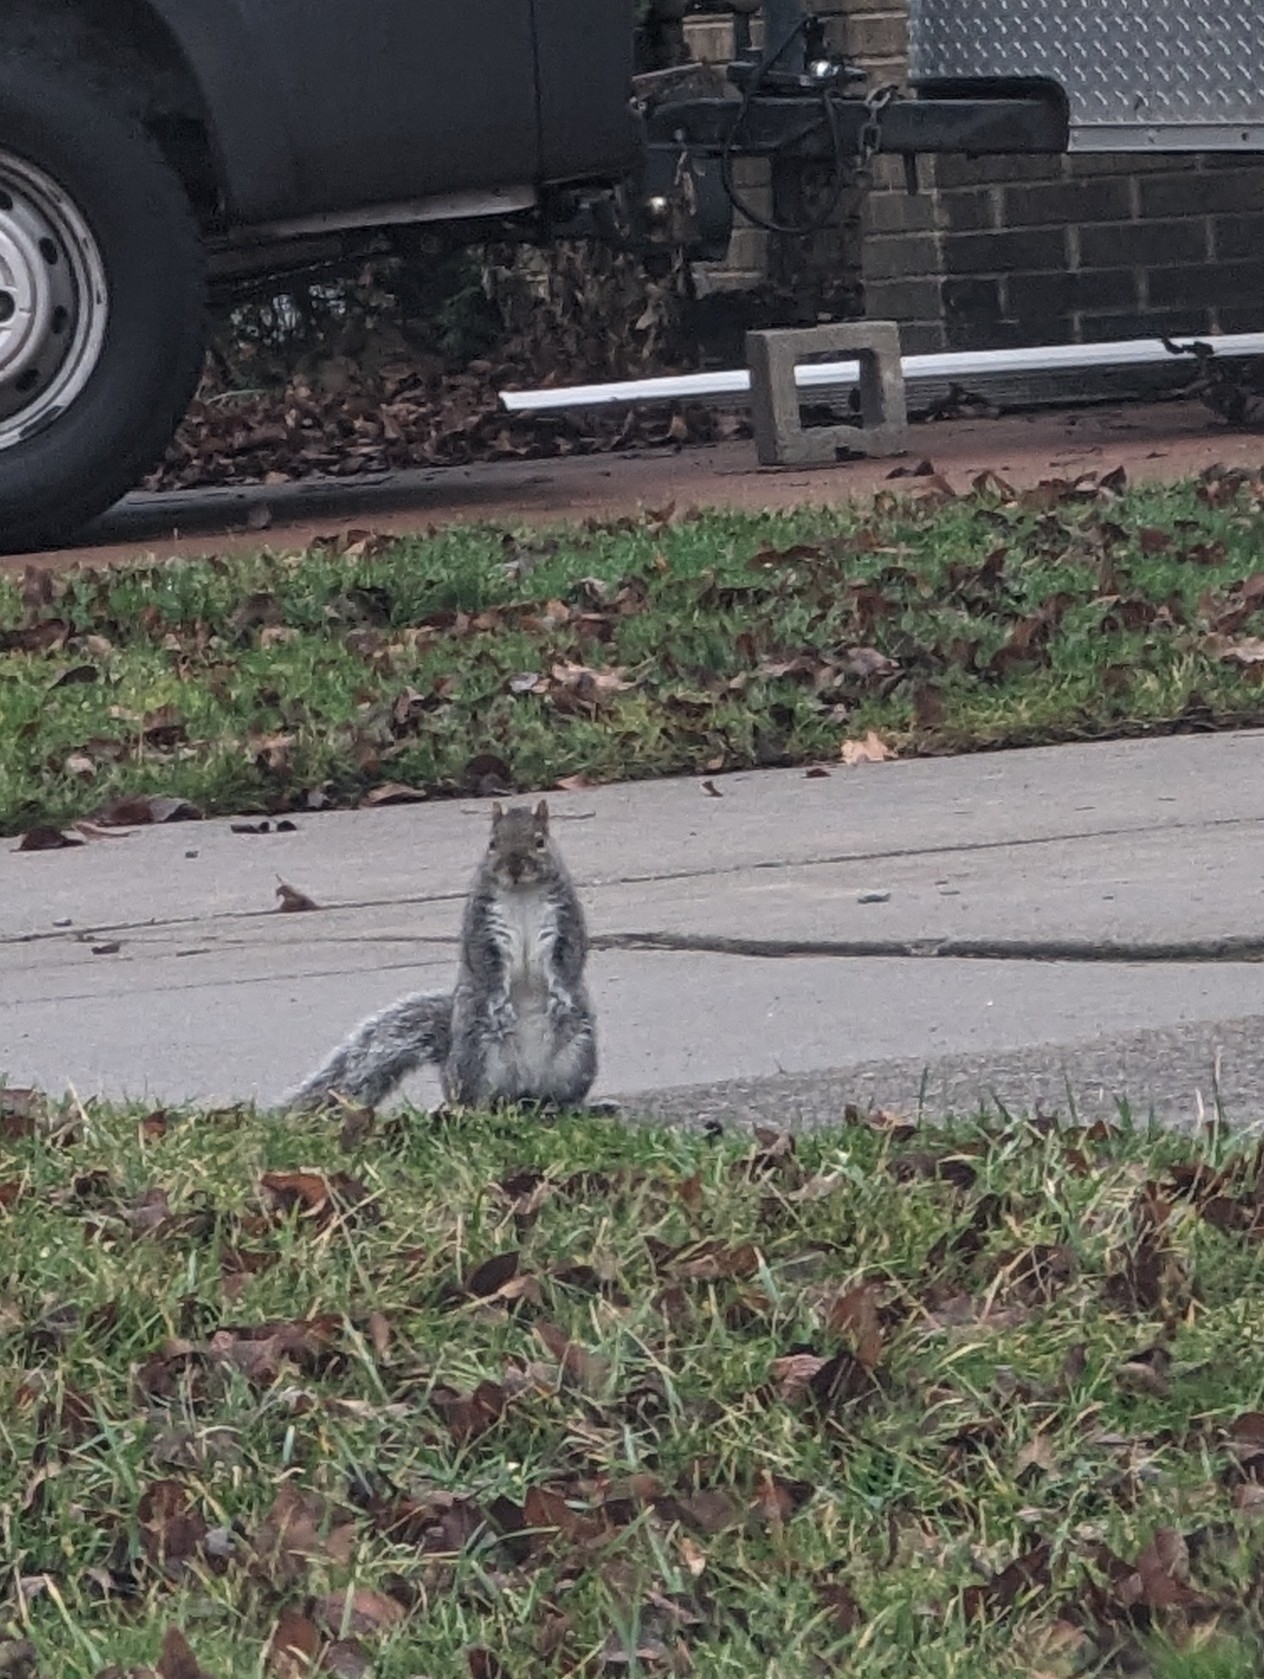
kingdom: Animalia
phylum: Chordata
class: Mammalia
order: Rodentia
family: Sciuridae
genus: Sciurus
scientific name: Sciurus carolinensis
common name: Eastern gray squirrel
